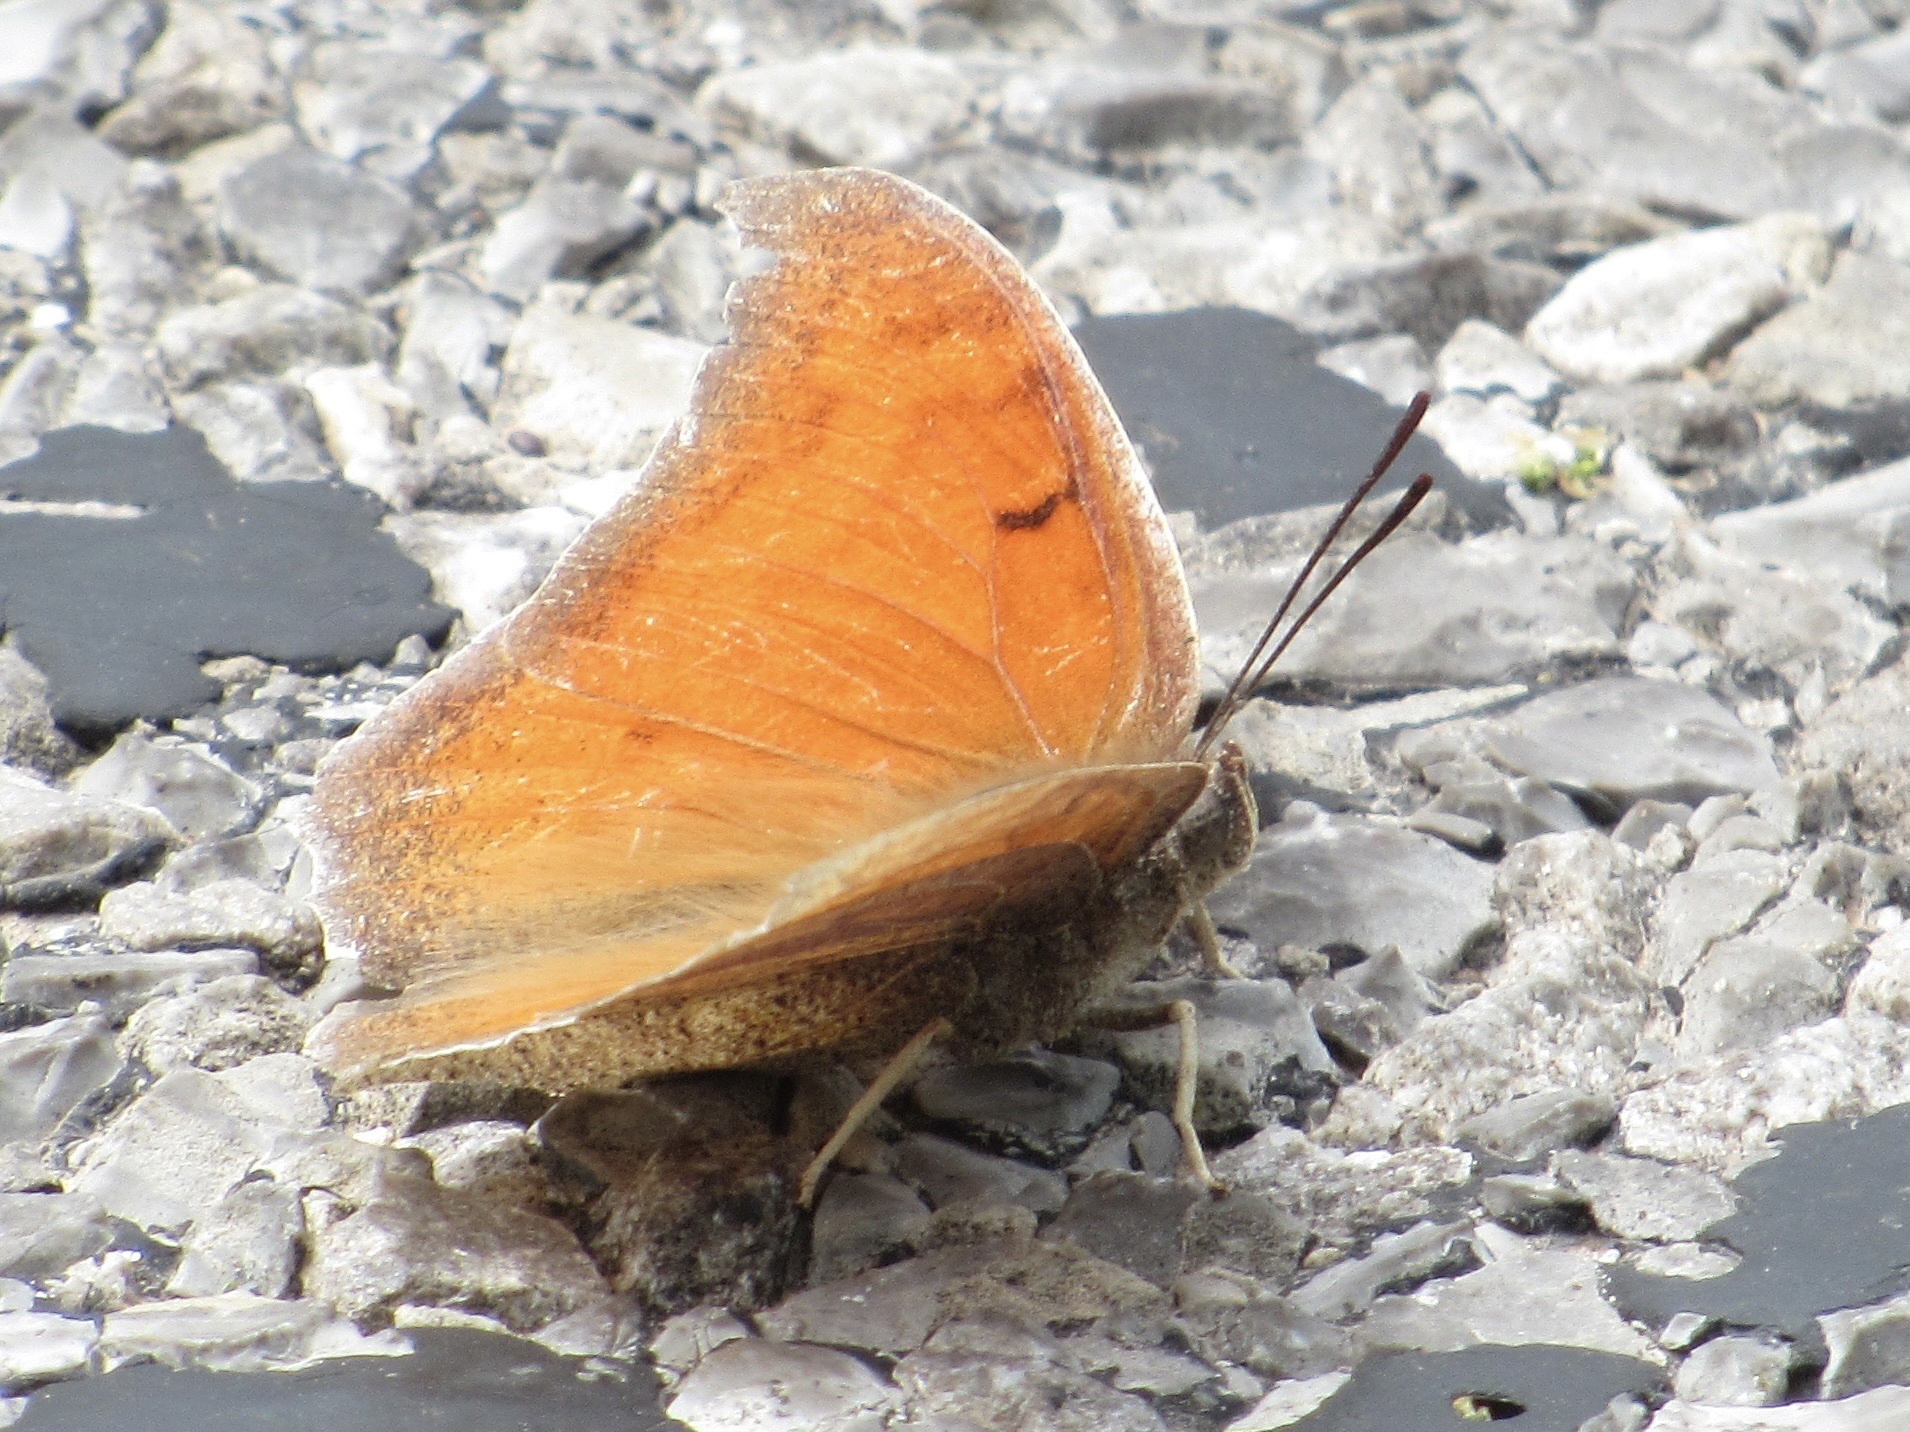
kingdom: Animalia
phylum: Arthropoda
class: Insecta
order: Lepidoptera
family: Nymphalidae
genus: Anaea
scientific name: Anaea andria
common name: Goatweed leafwing
